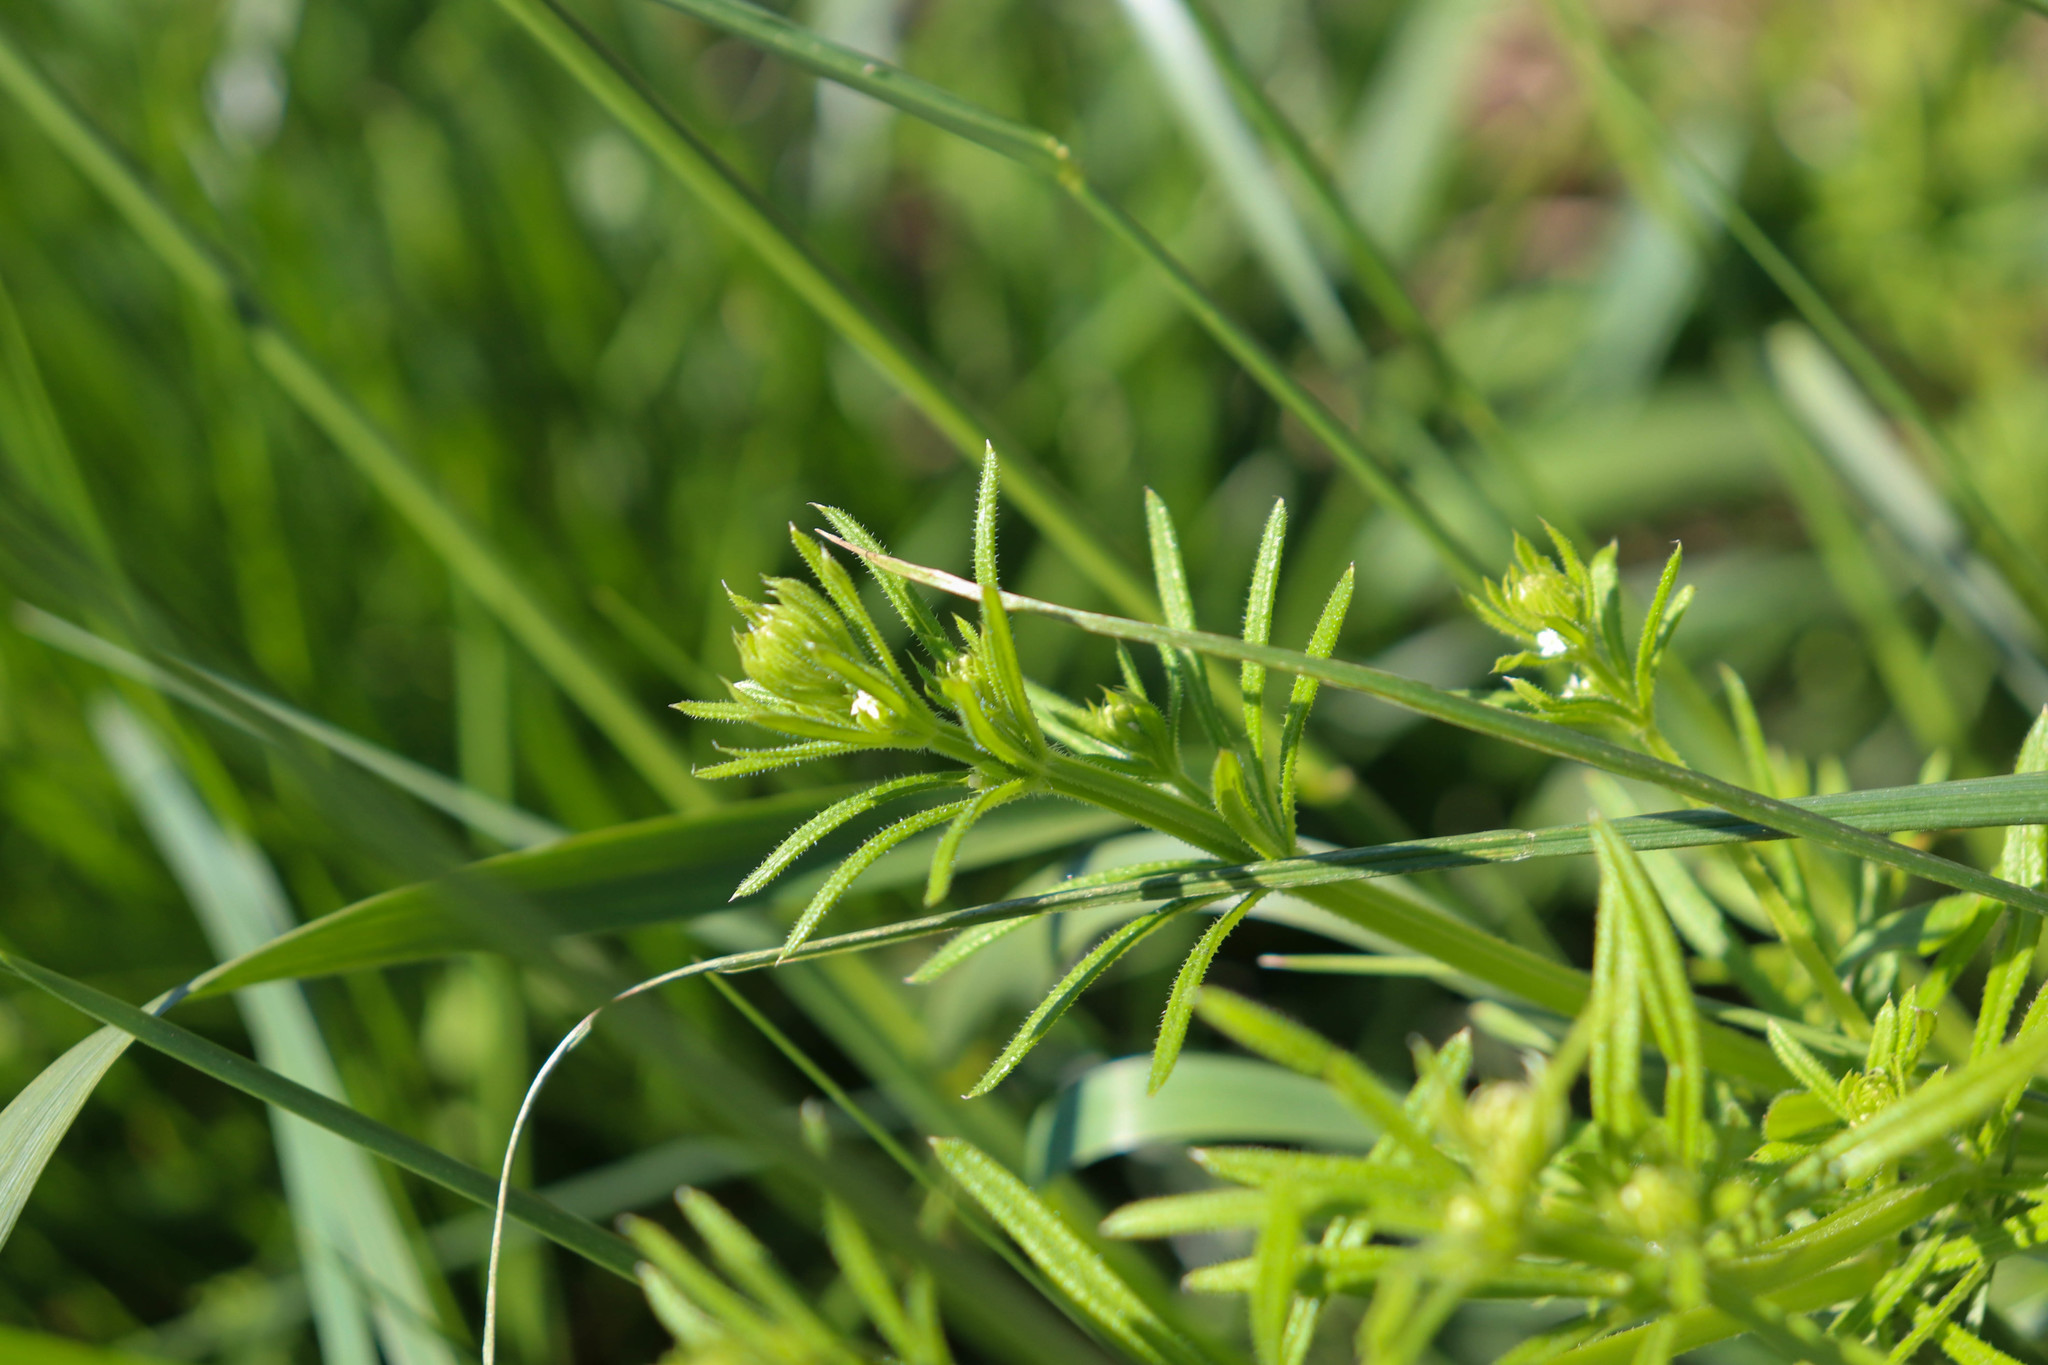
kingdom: Plantae
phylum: Tracheophyta
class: Magnoliopsida
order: Gentianales
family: Rubiaceae
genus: Galium
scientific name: Galium aparine
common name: Cleavers
